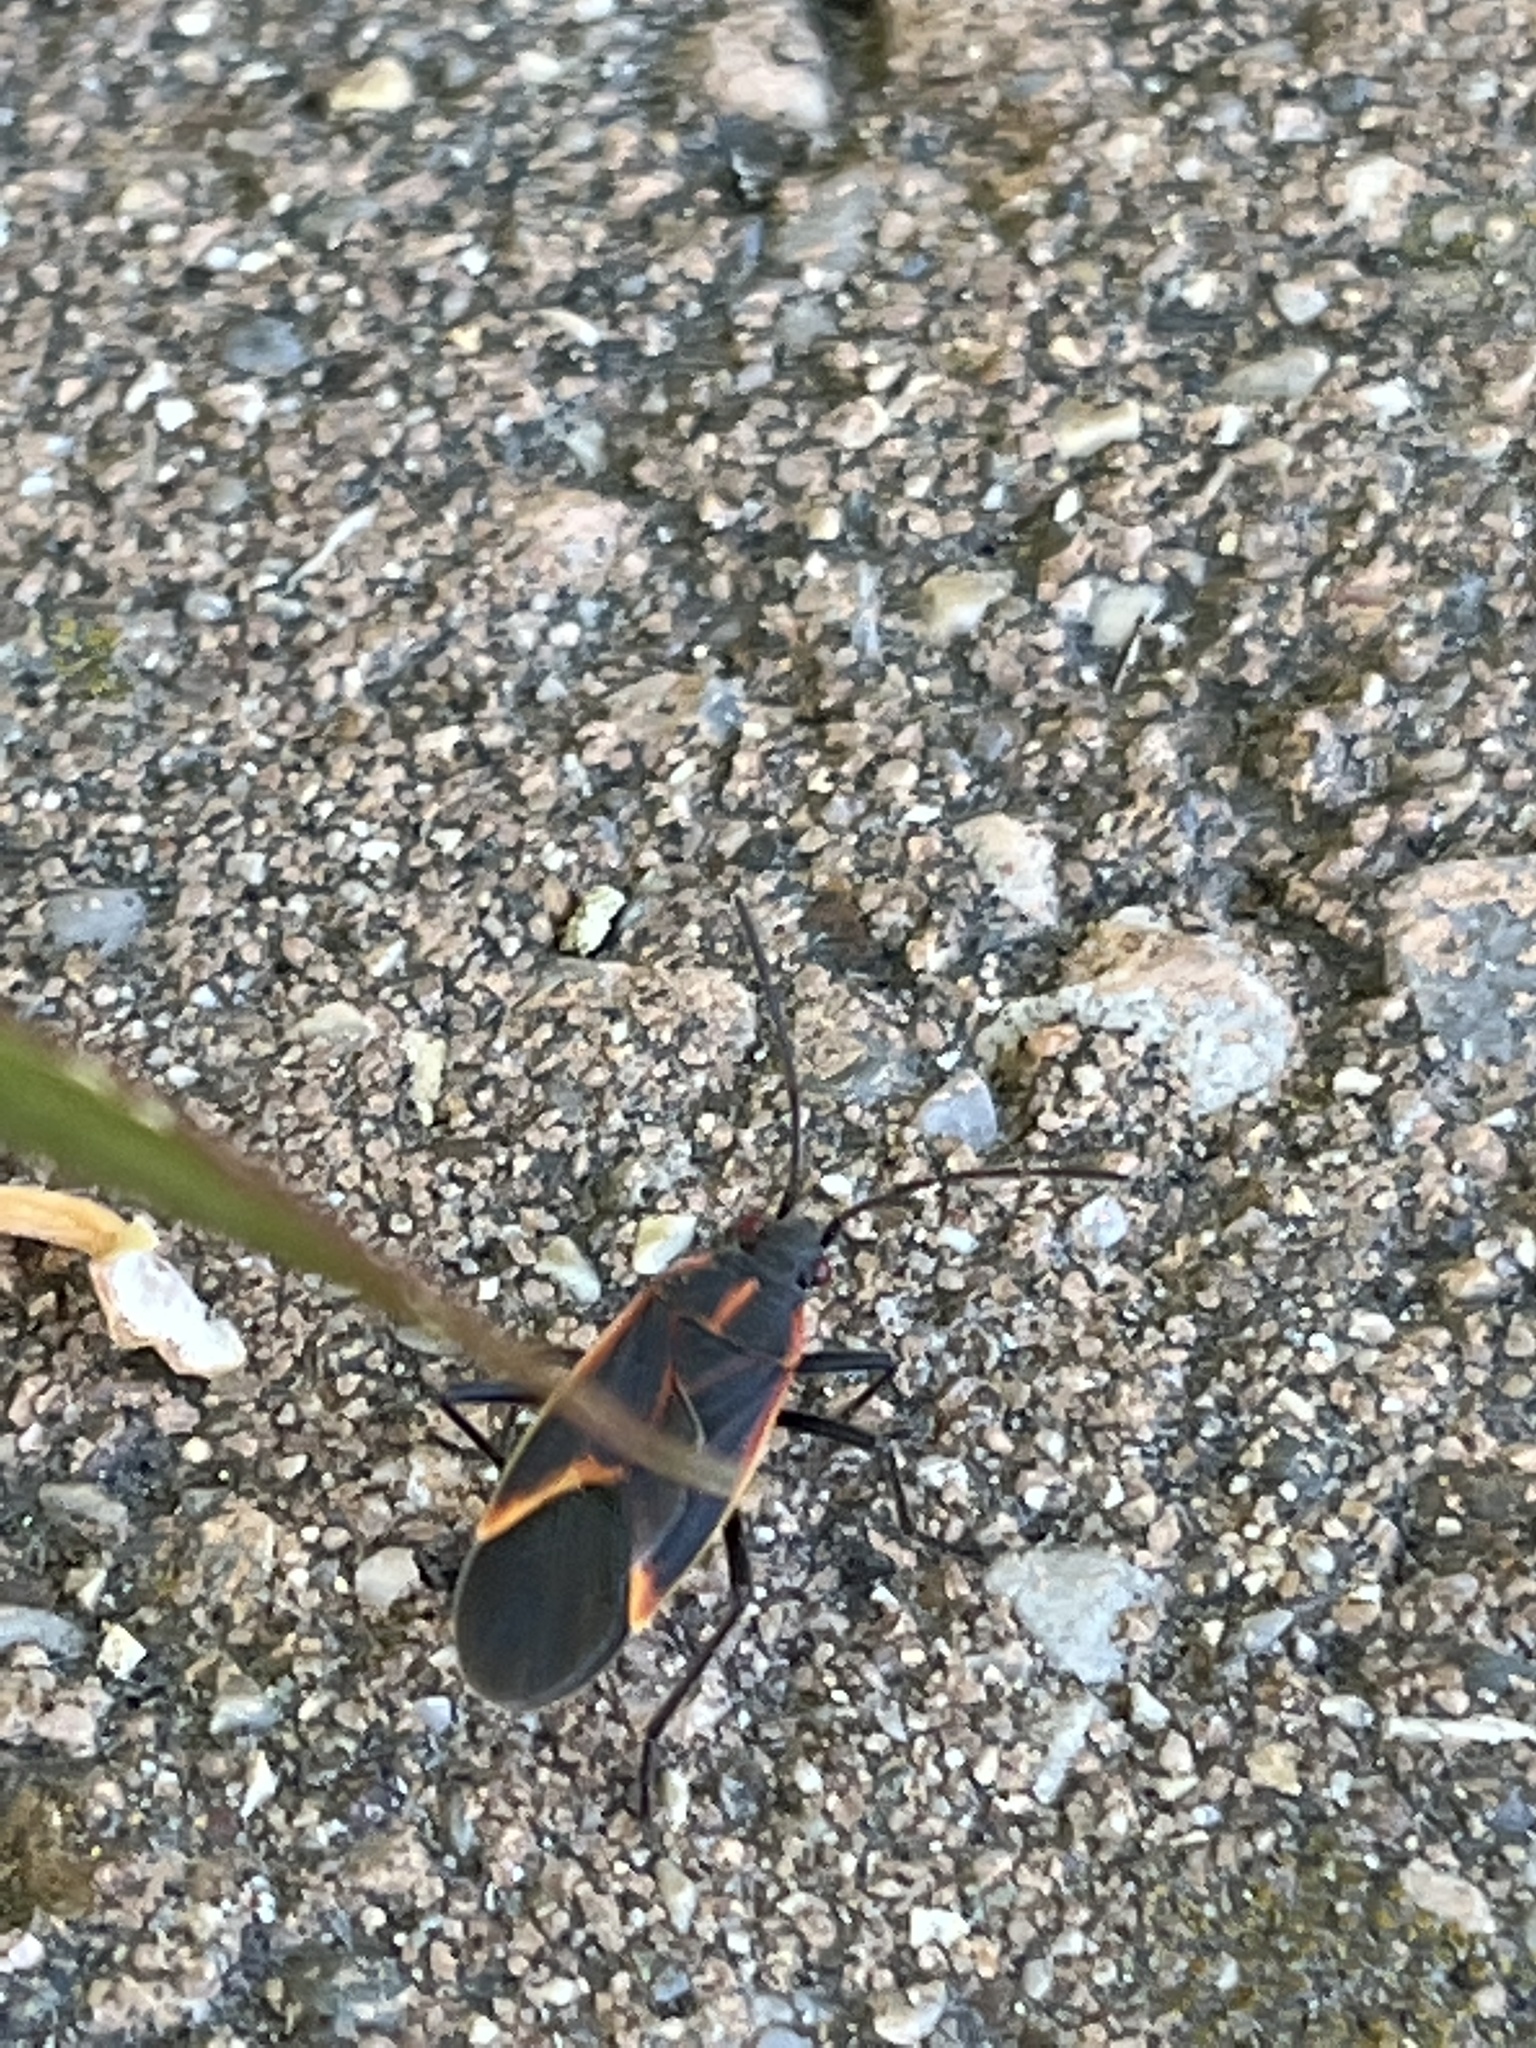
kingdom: Animalia
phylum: Arthropoda
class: Insecta
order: Hemiptera
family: Rhopalidae
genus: Boisea
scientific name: Boisea trivittata
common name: Boxelder bug
